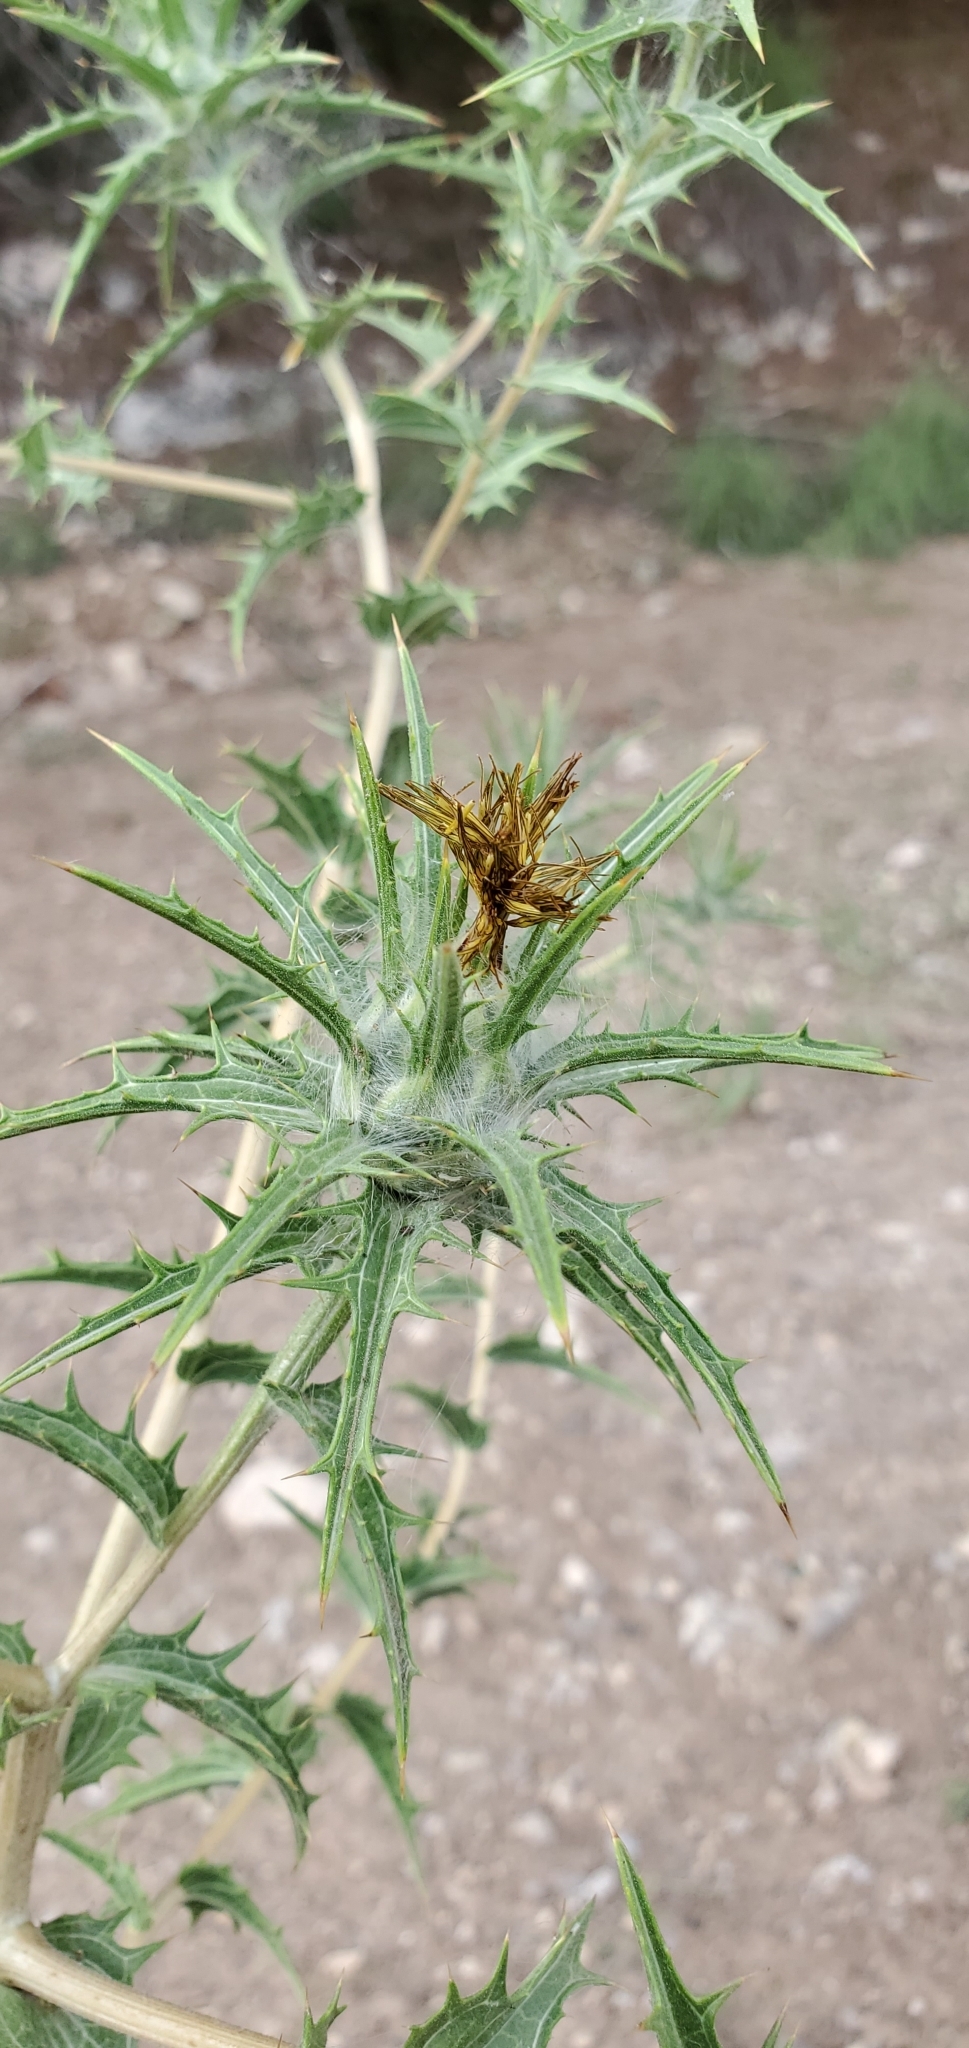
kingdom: Plantae
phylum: Tracheophyta
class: Magnoliopsida
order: Asterales
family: Asteraceae
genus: Carthamus
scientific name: Carthamus lanatus
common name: Downy safflower
